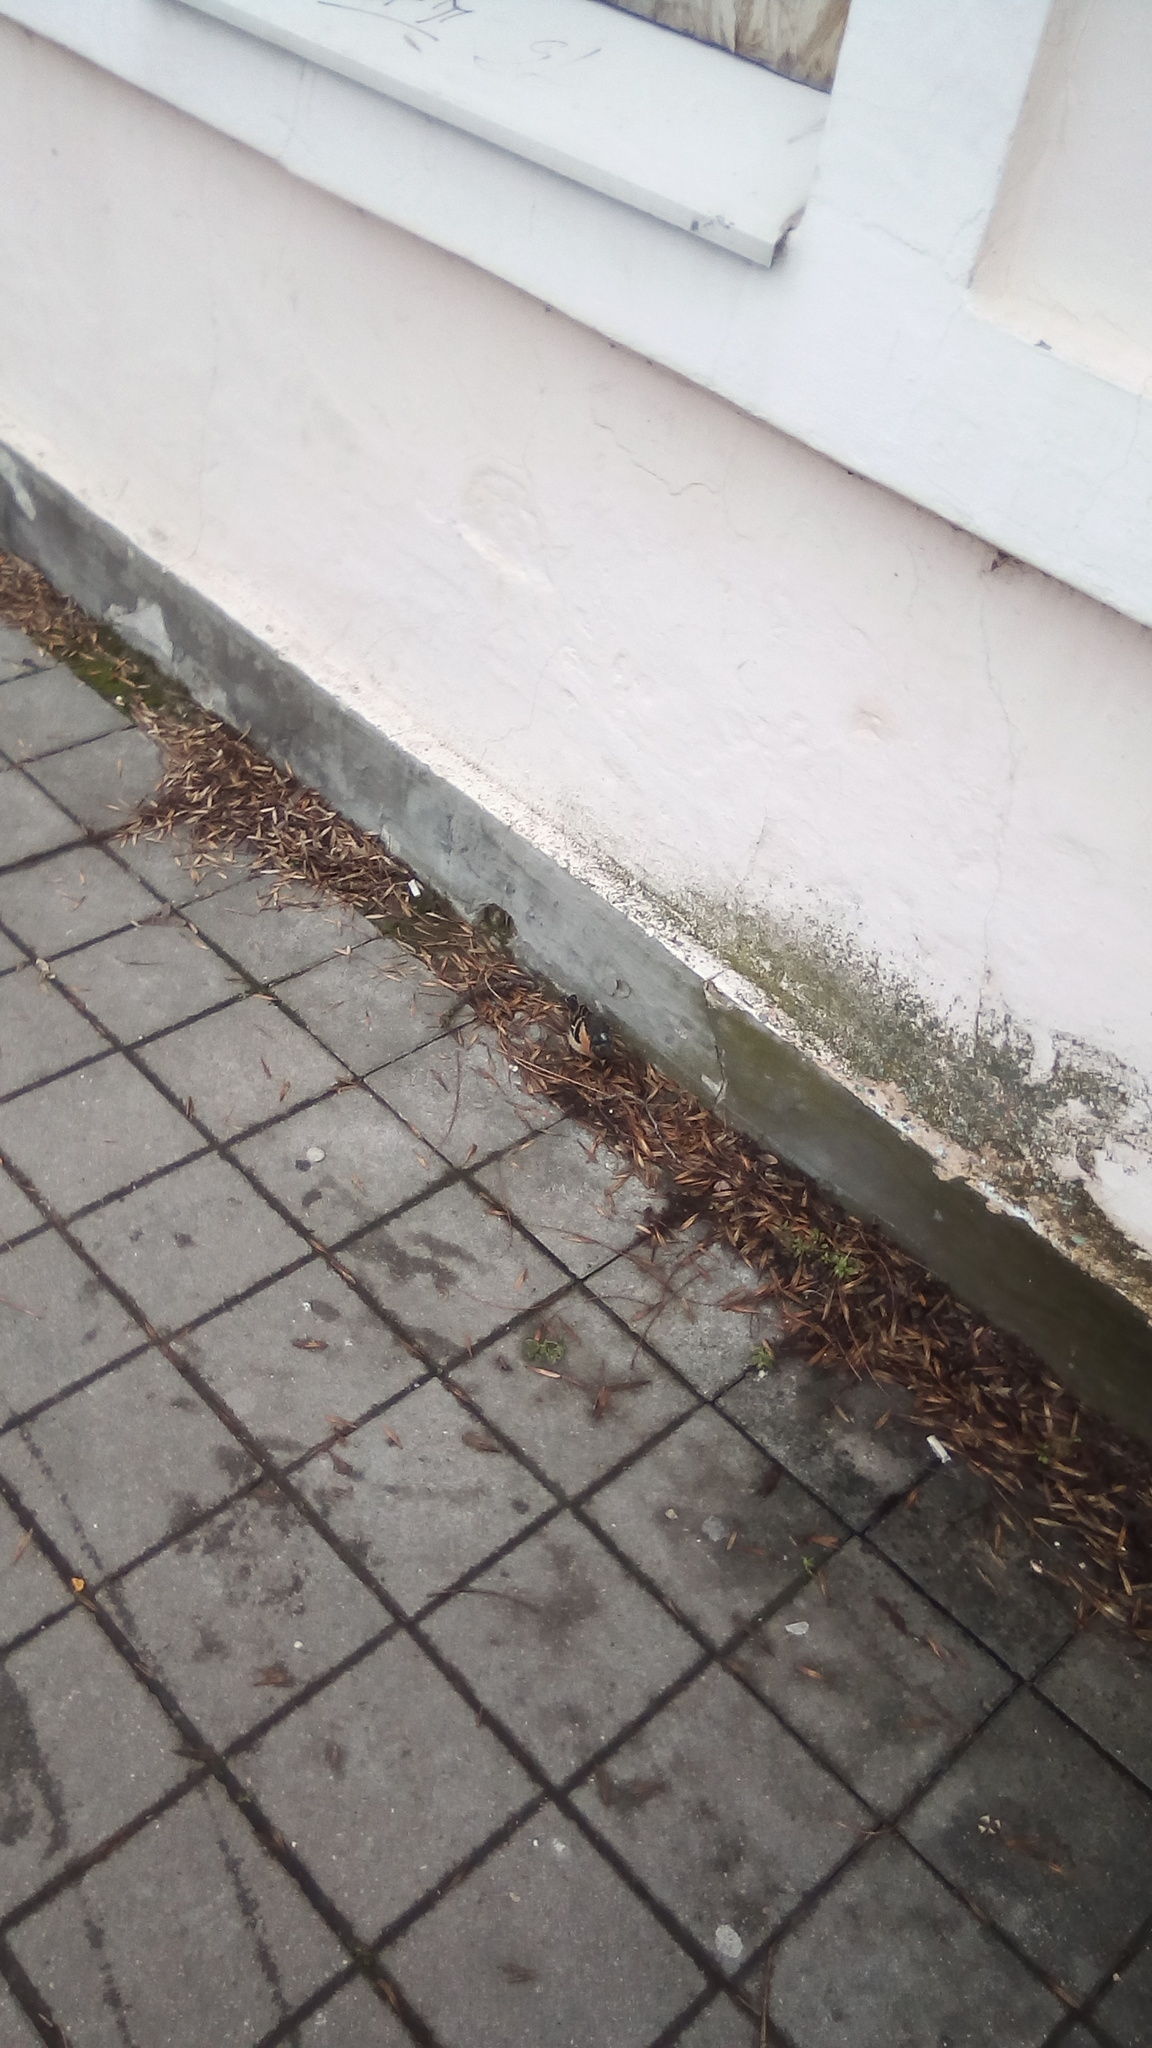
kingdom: Animalia
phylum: Chordata
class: Aves
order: Passeriformes
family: Fringillidae
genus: Fringilla
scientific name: Fringilla montifringilla
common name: Brambling
